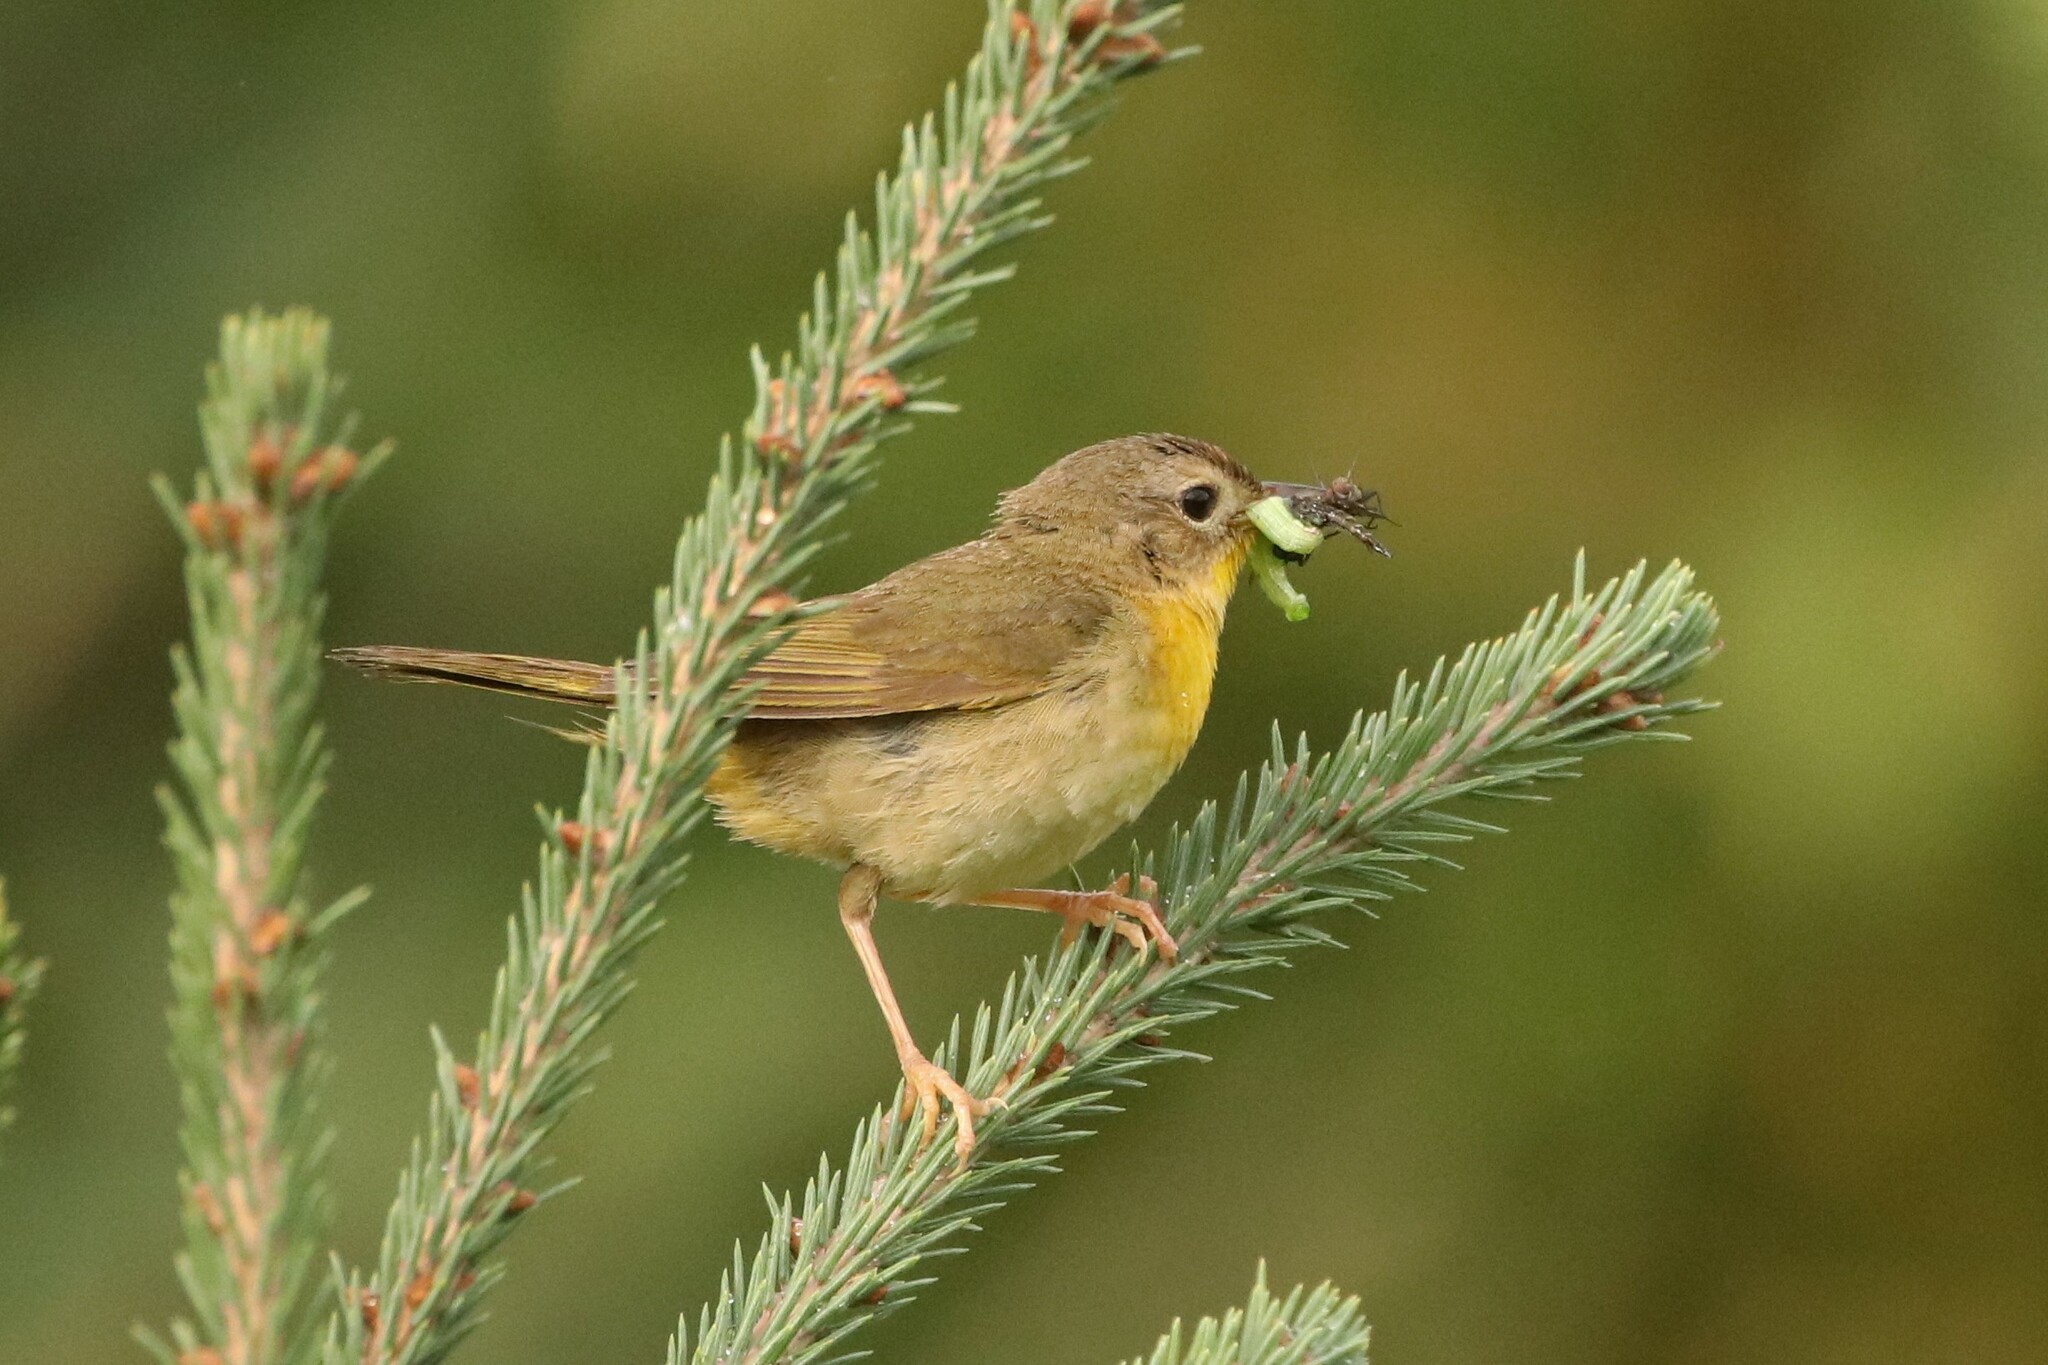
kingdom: Animalia
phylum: Chordata
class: Aves
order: Passeriformes
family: Parulidae
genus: Geothlypis
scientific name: Geothlypis trichas
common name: Common yellowthroat
